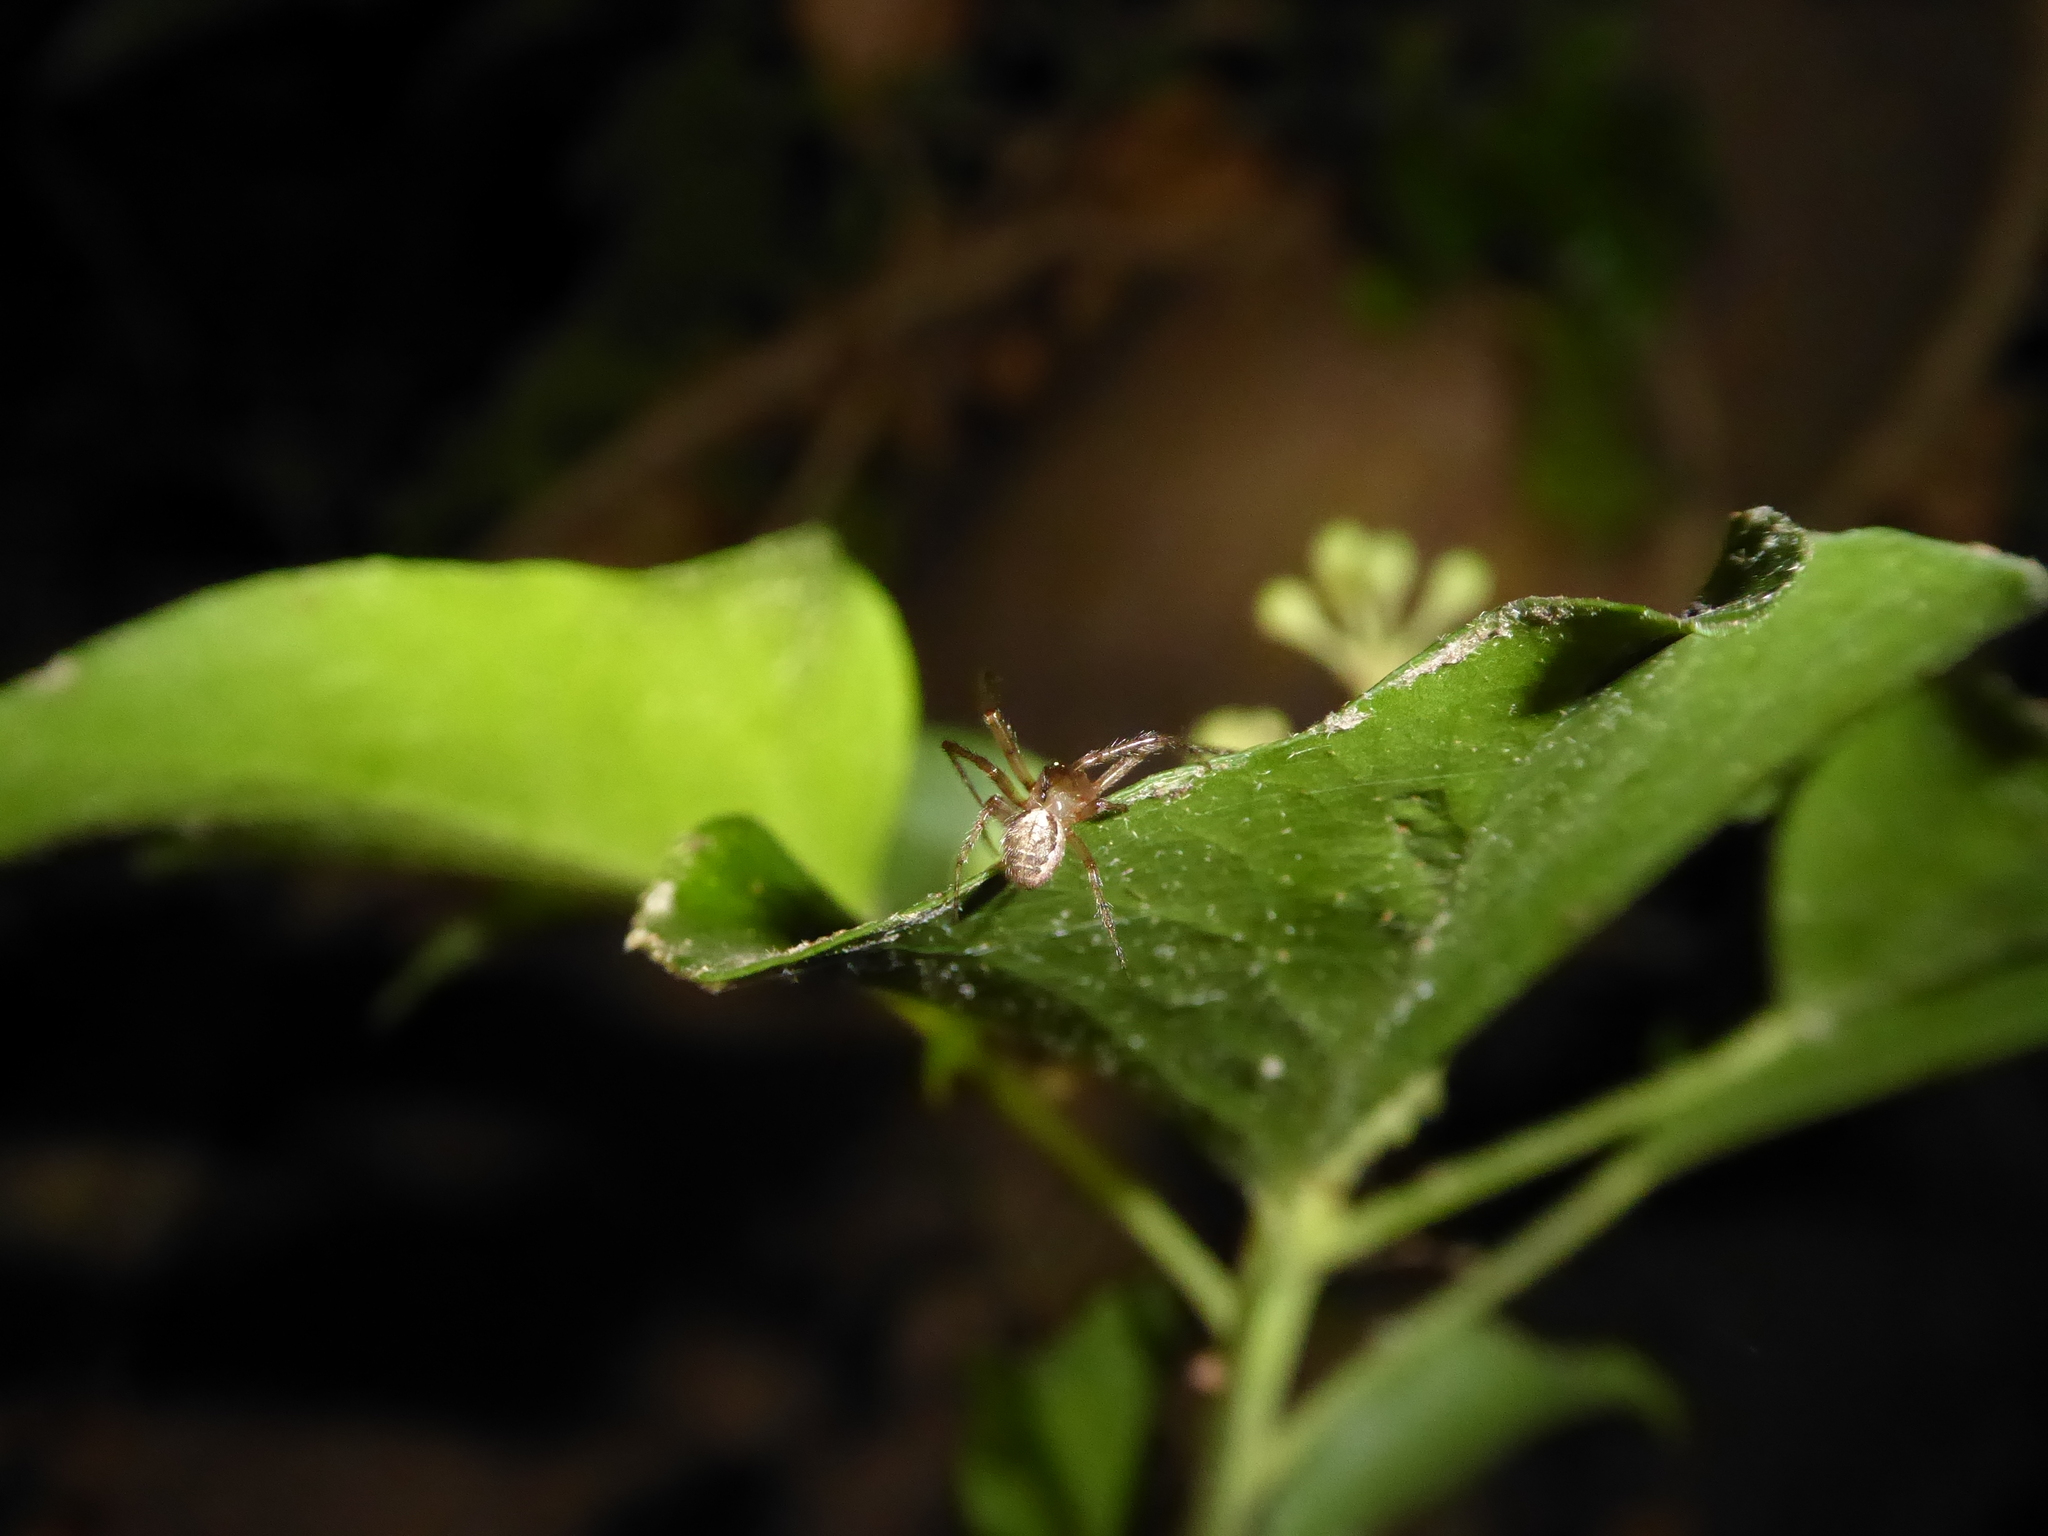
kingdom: Animalia
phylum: Arthropoda
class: Arachnida
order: Araneae
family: Araneidae
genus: Zygiella
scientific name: Zygiella
